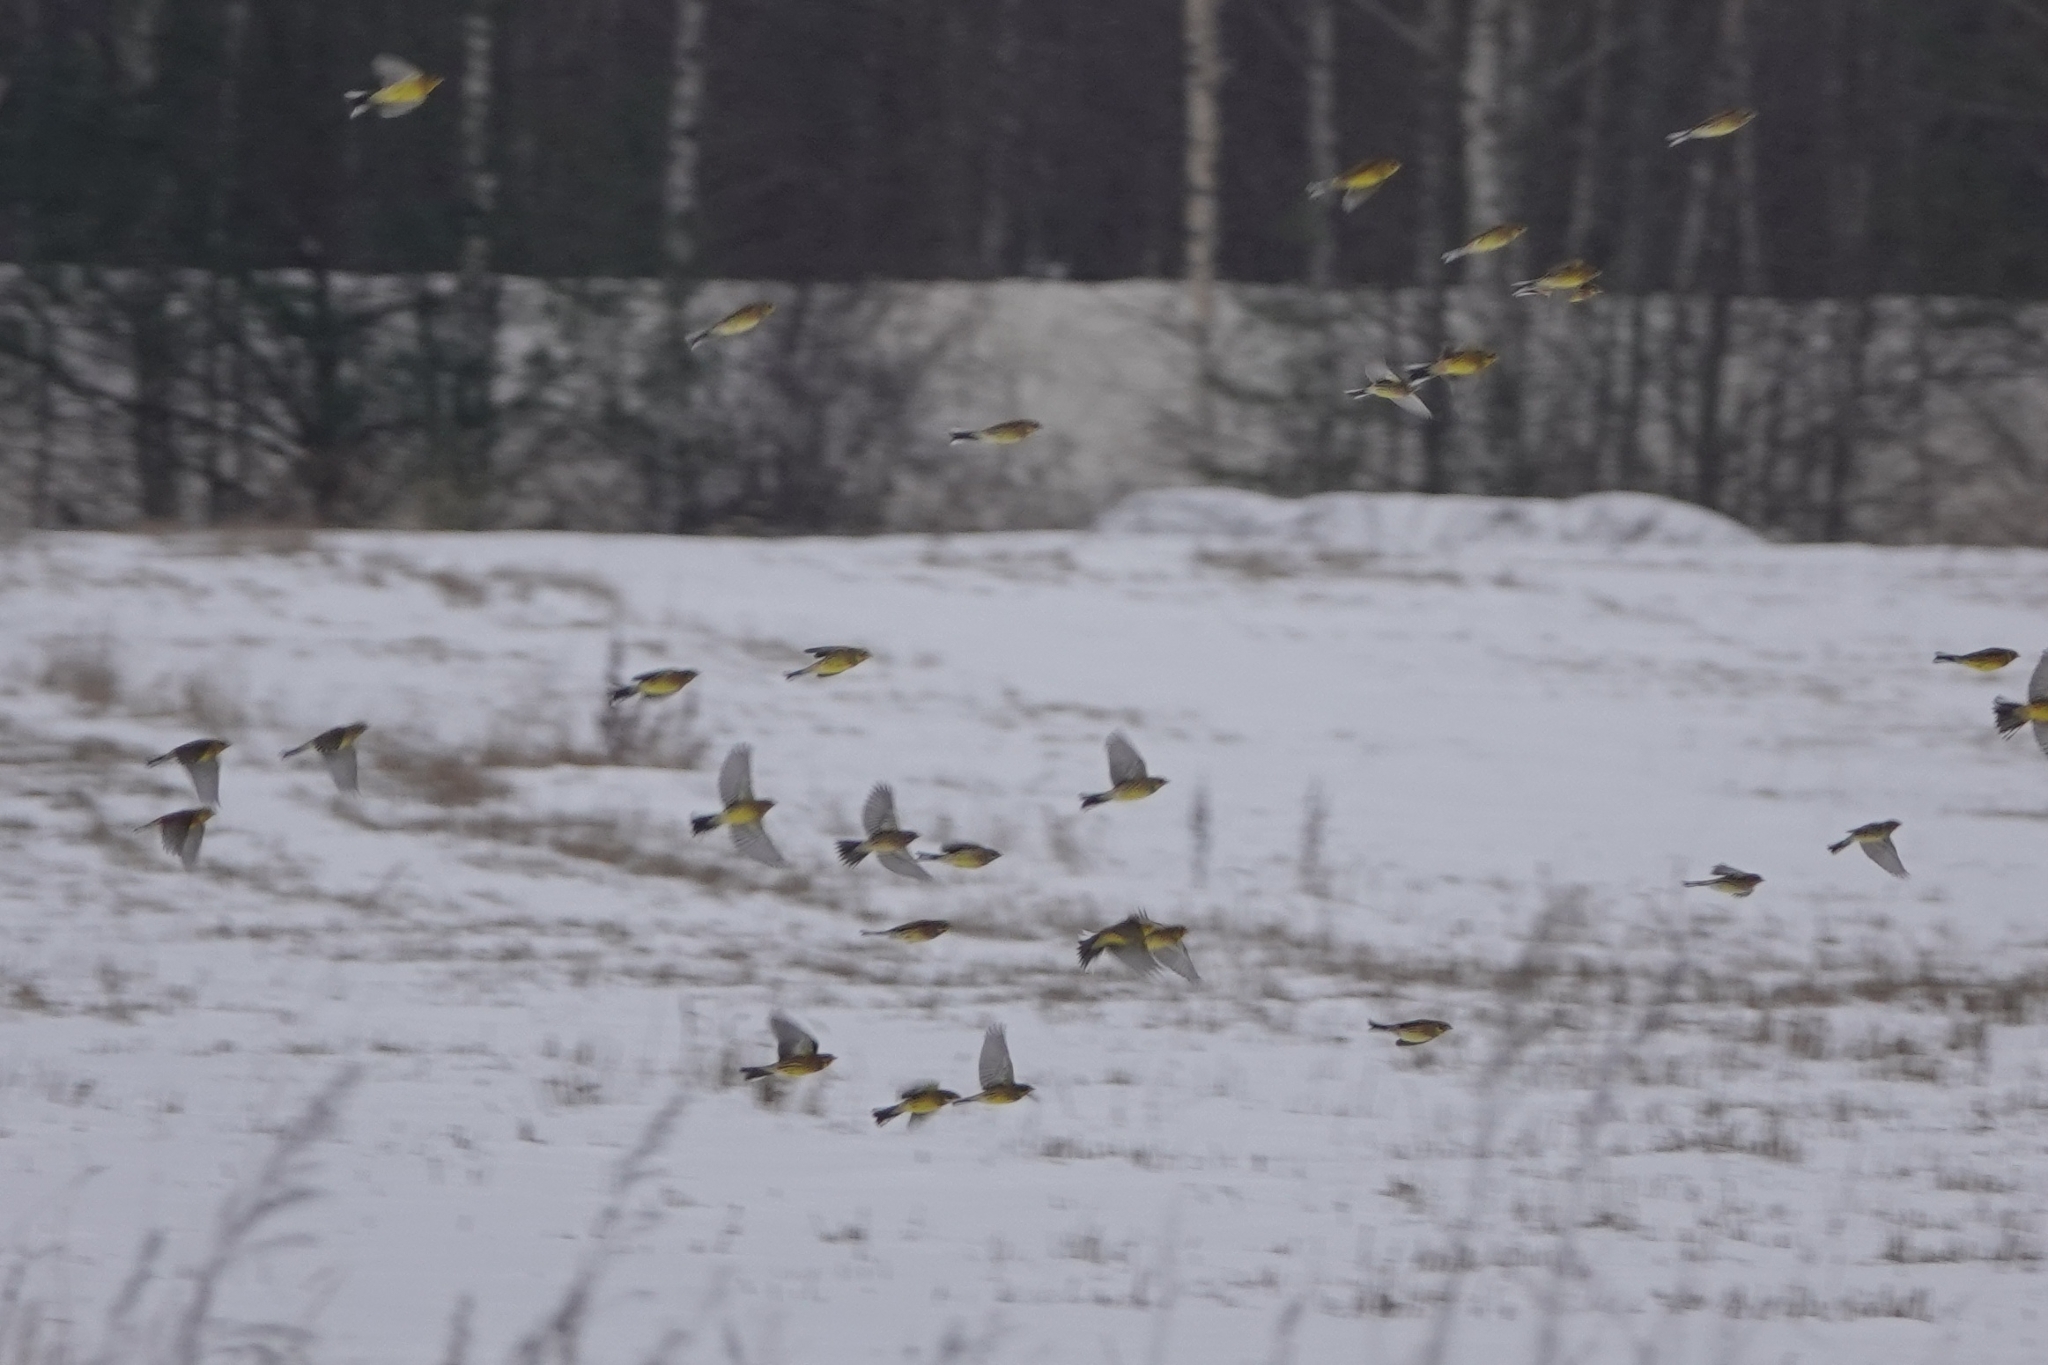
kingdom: Animalia
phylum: Chordata
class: Aves
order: Passeriformes
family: Emberizidae
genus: Emberiza
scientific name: Emberiza citrinella
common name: Yellowhammer
